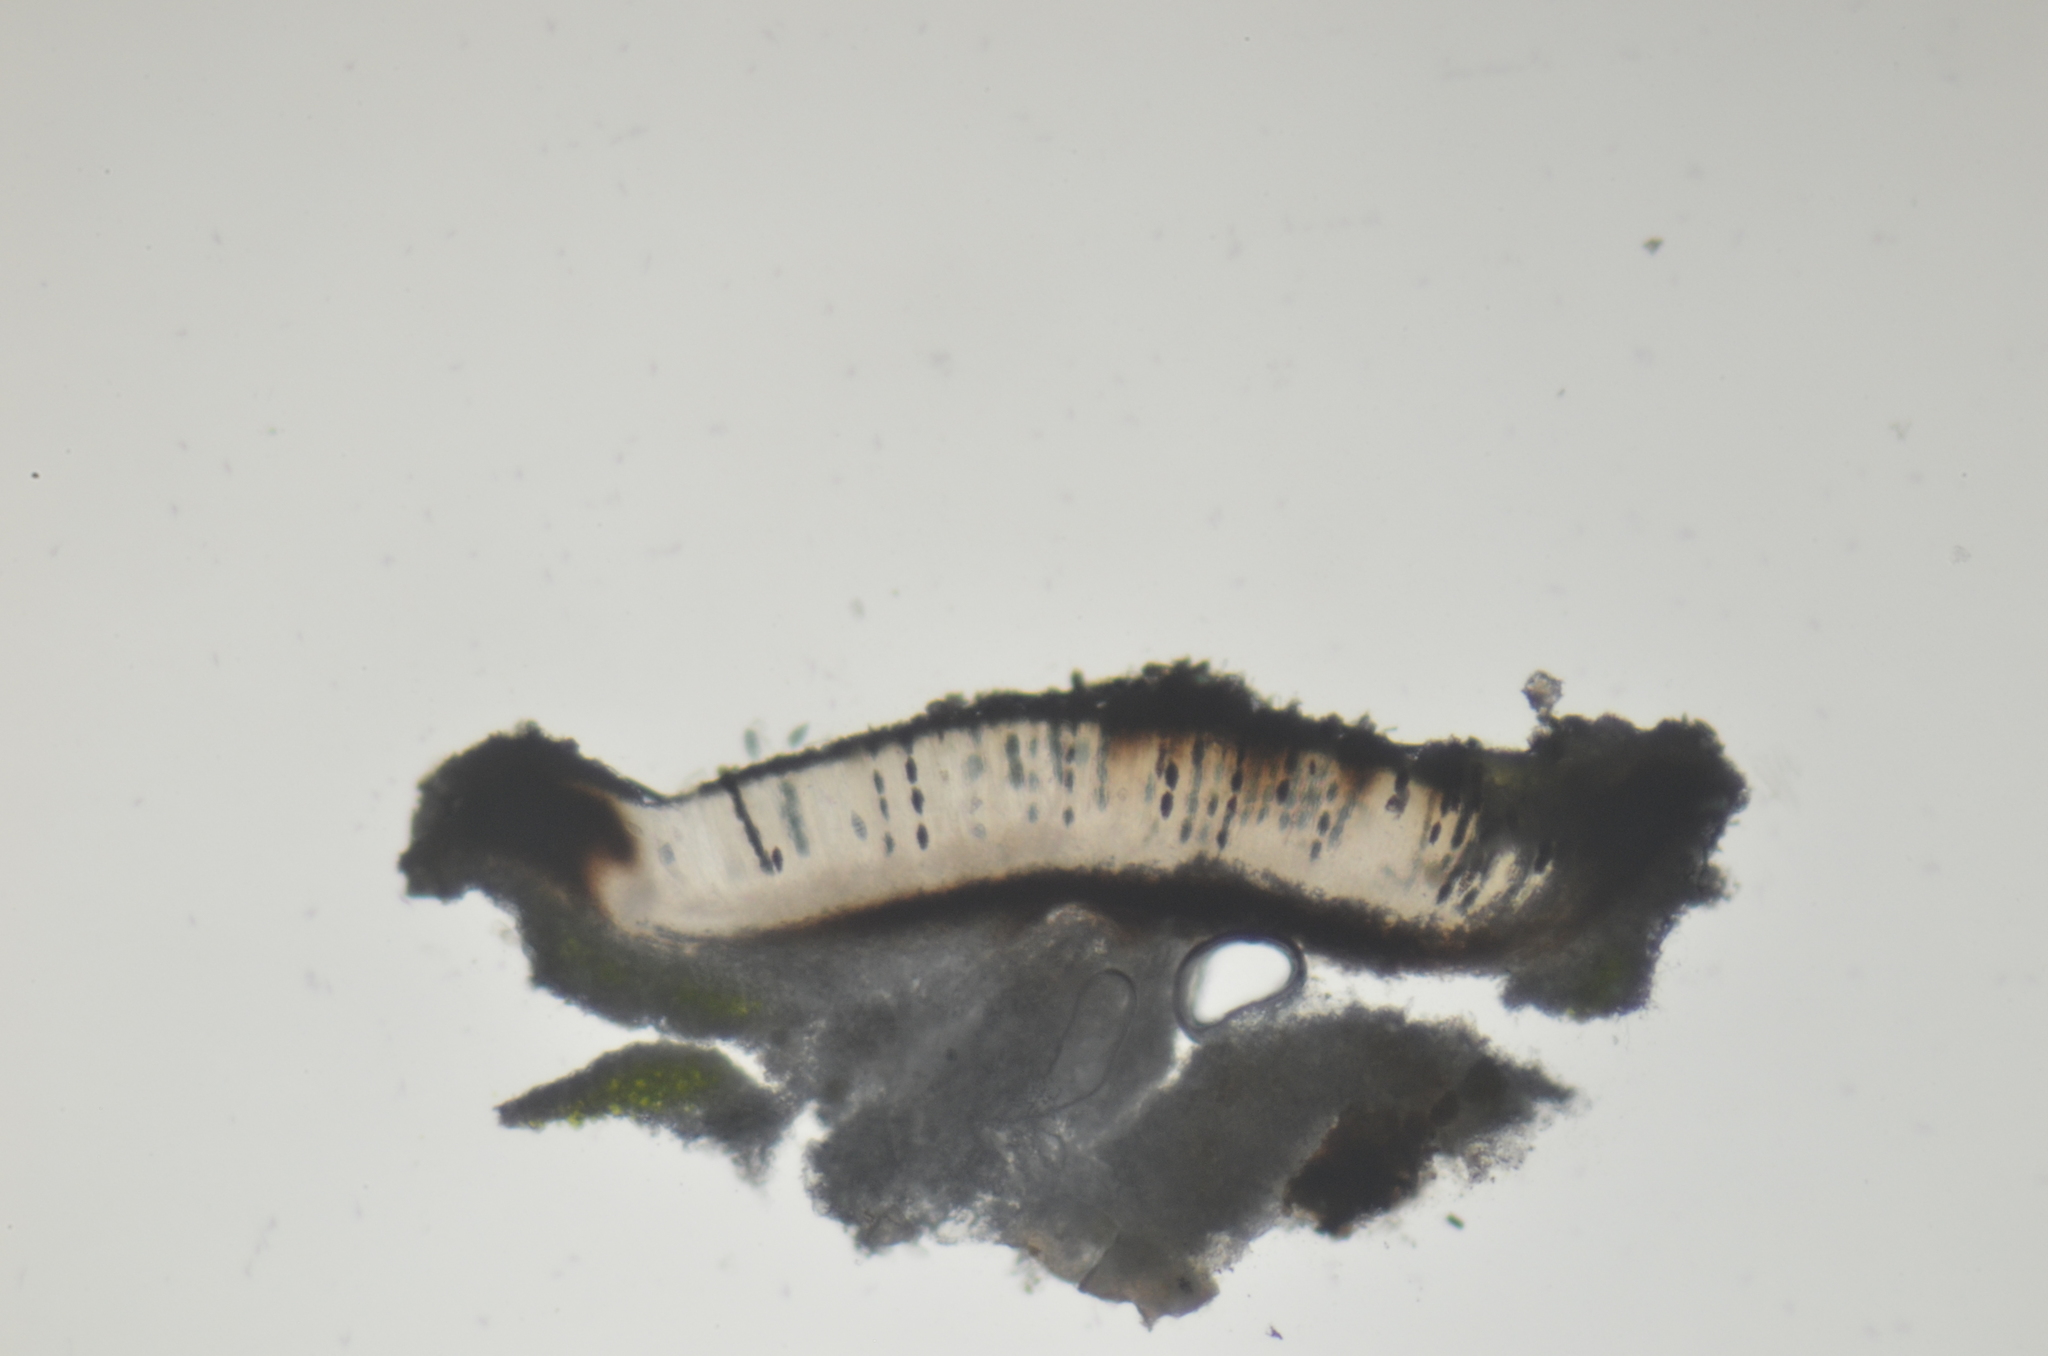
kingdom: Fungi
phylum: Ascomycota
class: Lecanoromycetes
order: Ostropales
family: Graphidaceae
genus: Diploschistes
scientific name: Diploschistes scruposus
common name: Crater lichen
